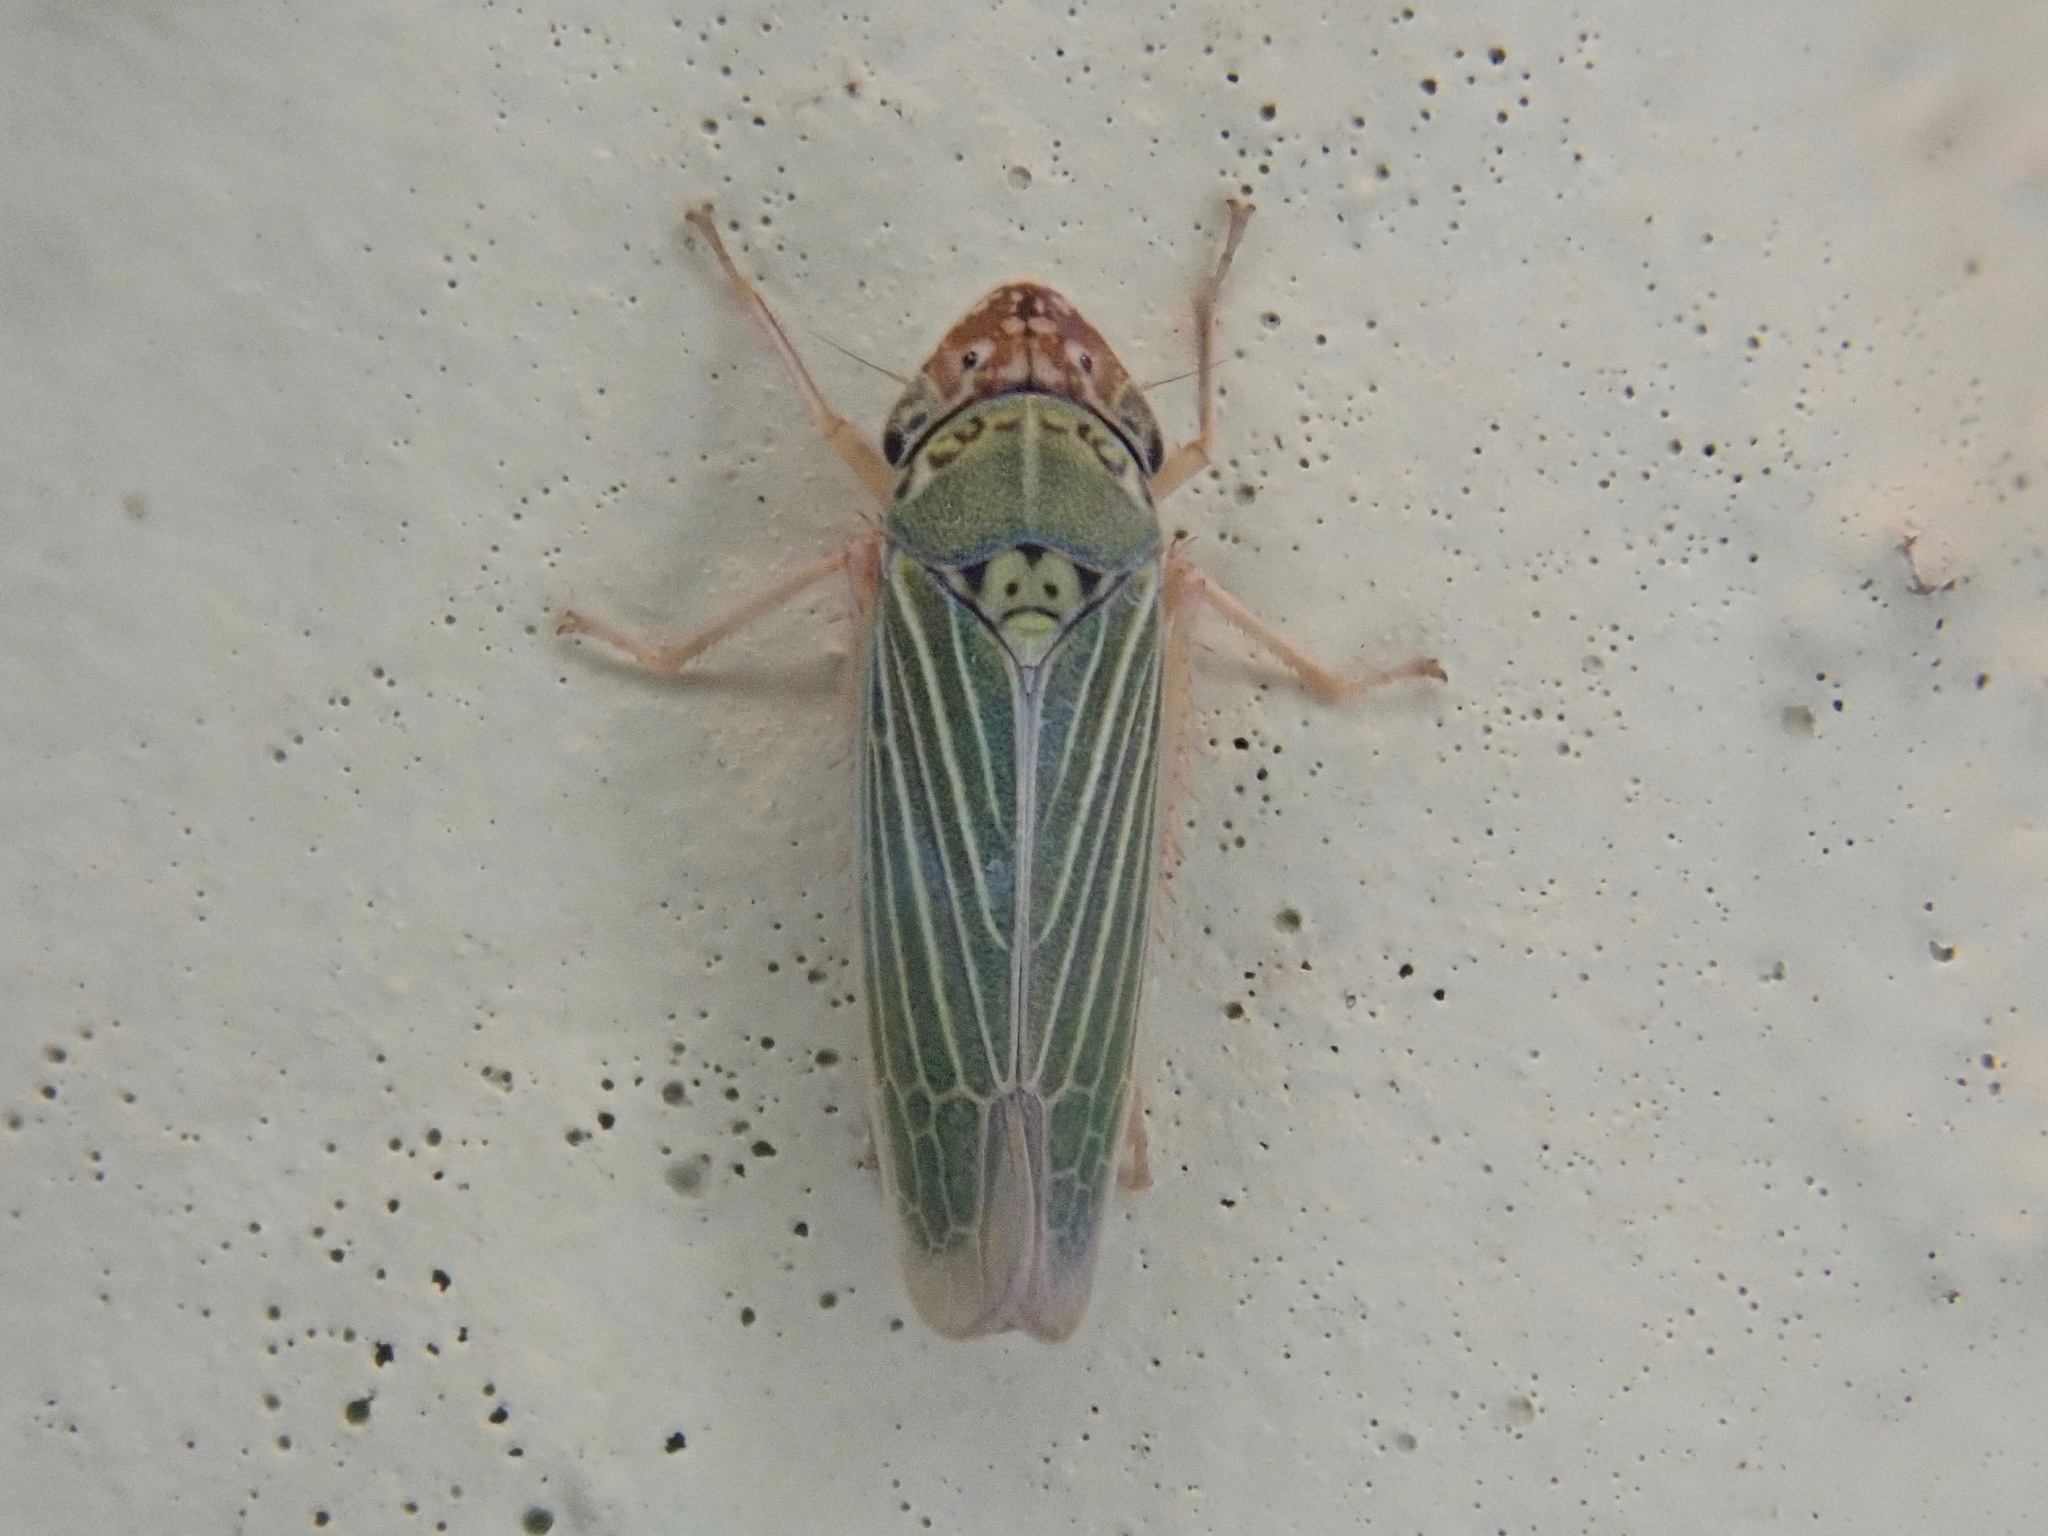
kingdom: Animalia
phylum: Arthropoda
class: Insecta
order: Hemiptera
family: Cicadellidae
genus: Xyphon
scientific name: Xyphon reticulatum
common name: Planthopper
